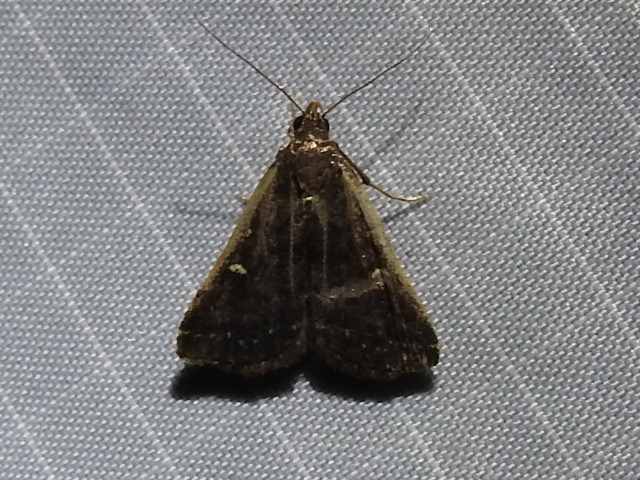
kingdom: Animalia
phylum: Arthropoda
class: Insecta
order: Lepidoptera
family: Erebidae
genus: Tetanolita
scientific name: Tetanolita mynesalis
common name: Smoky tetanolita moth
